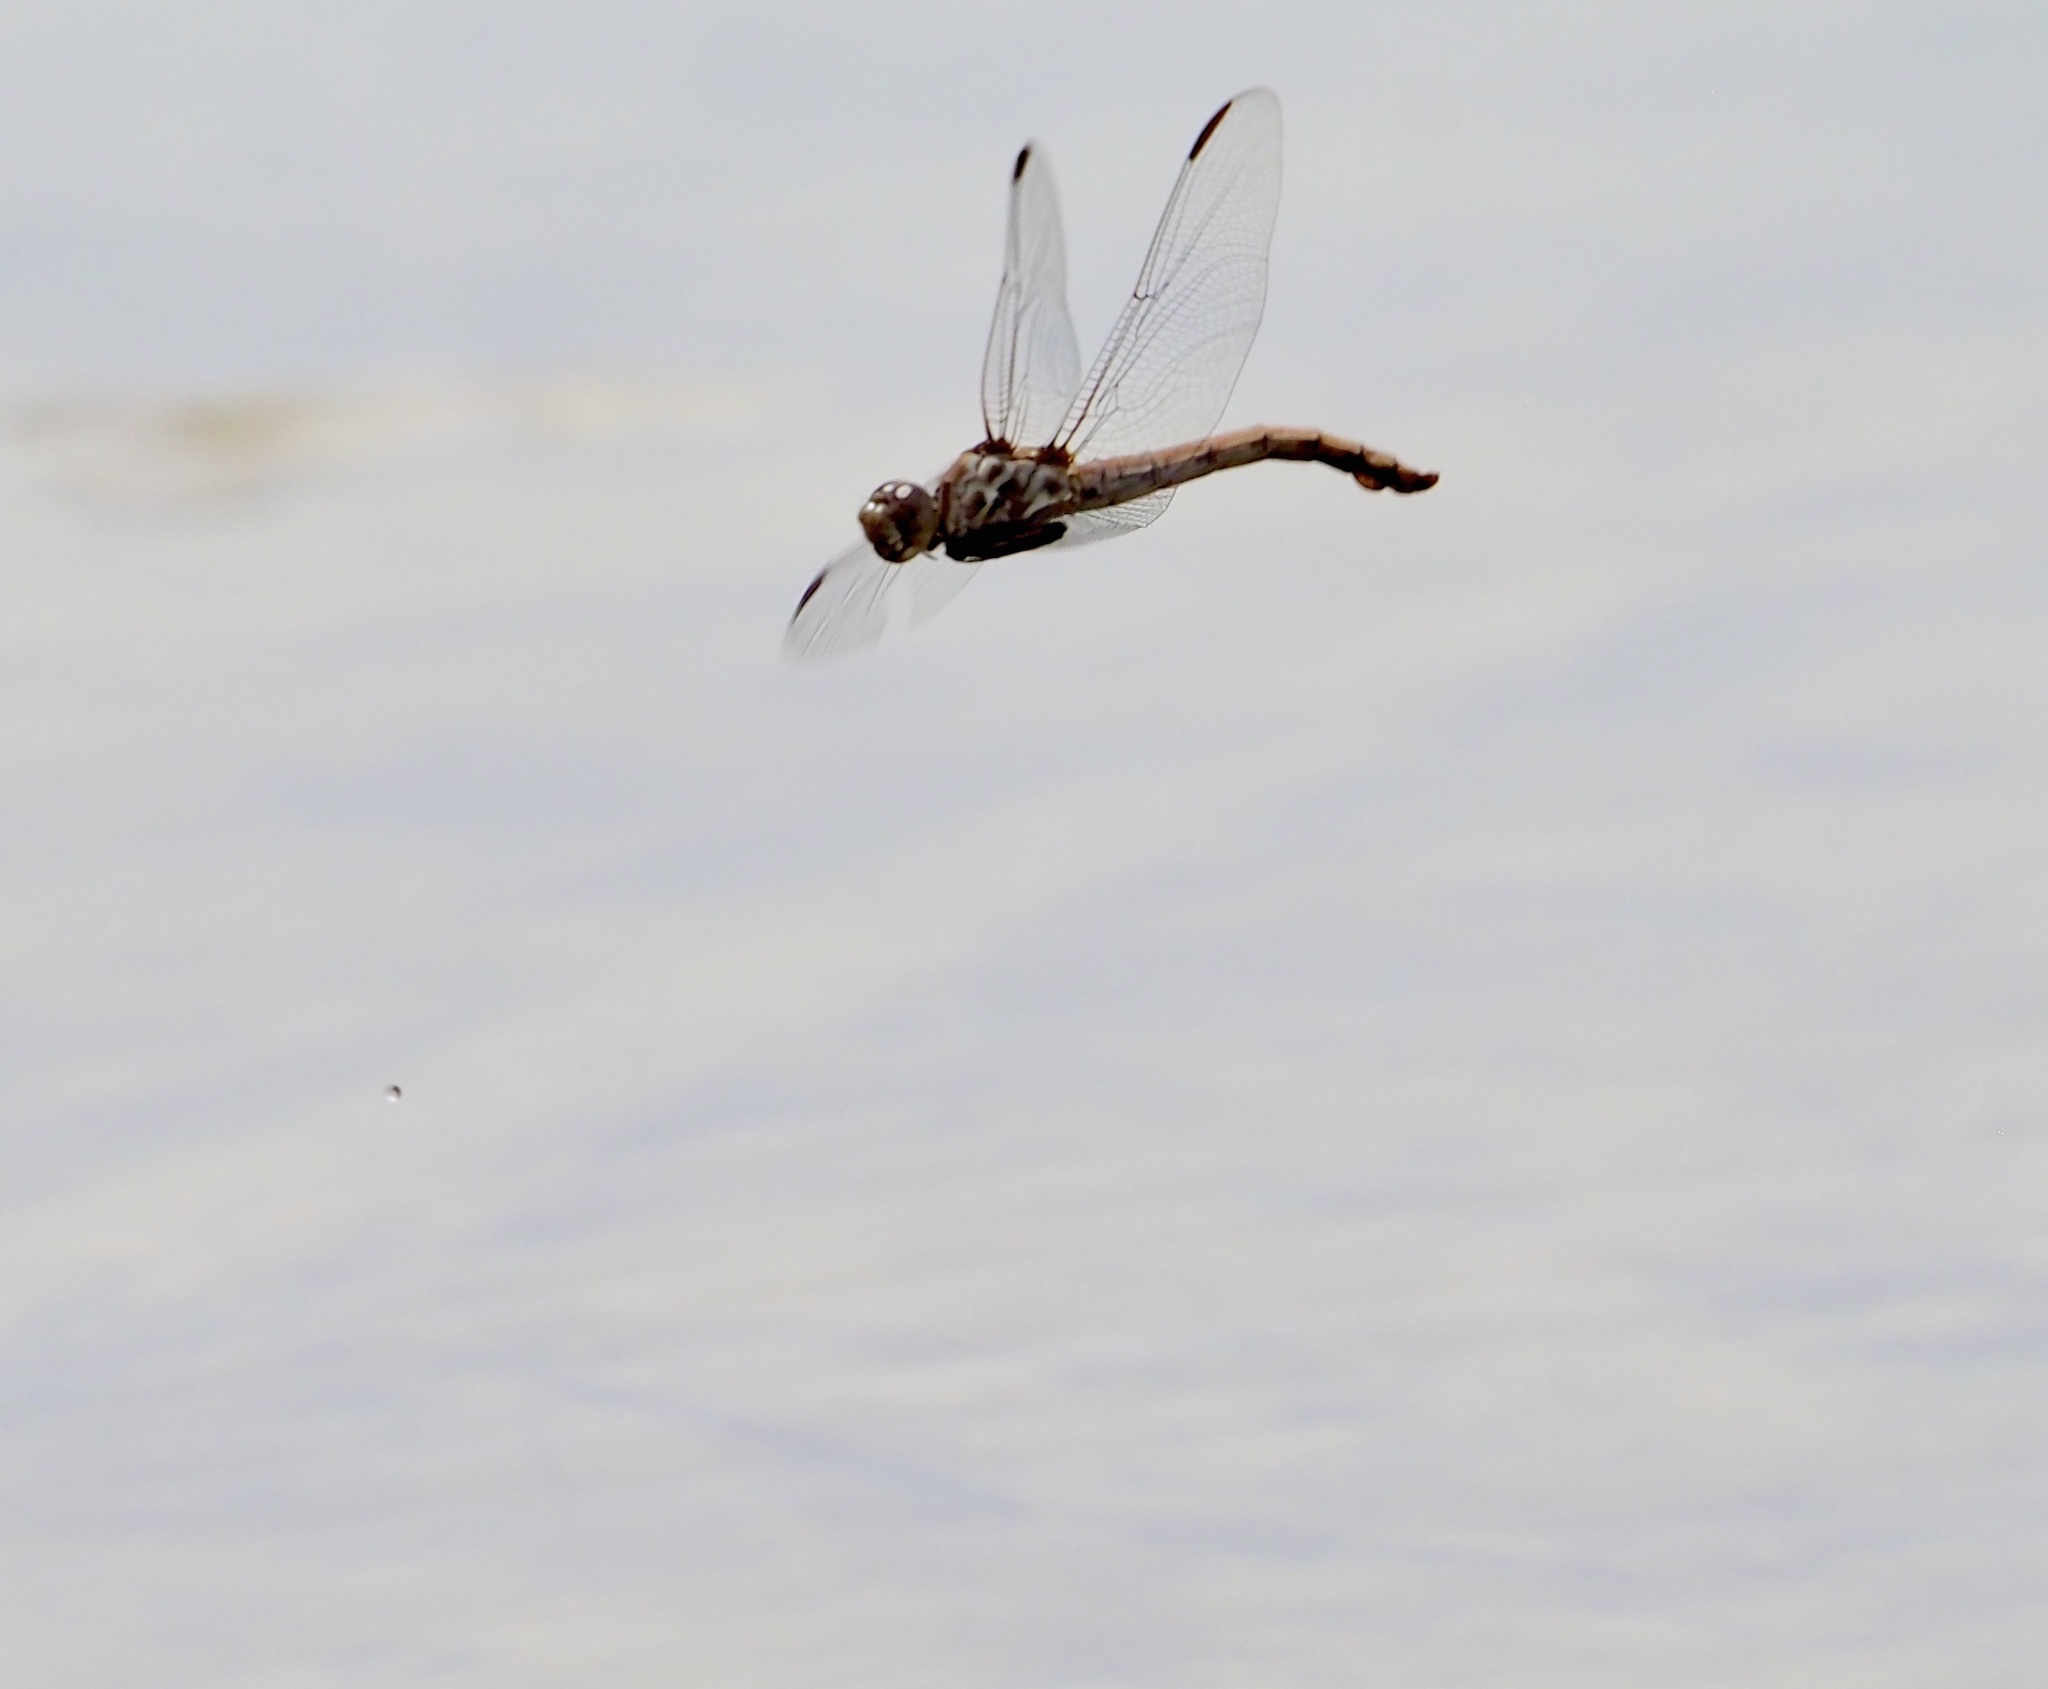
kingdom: Animalia
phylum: Arthropoda
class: Insecta
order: Odonata
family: Libellulidae
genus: Orthemis
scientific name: Orthemis ferruginea
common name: Roseate skimmer
